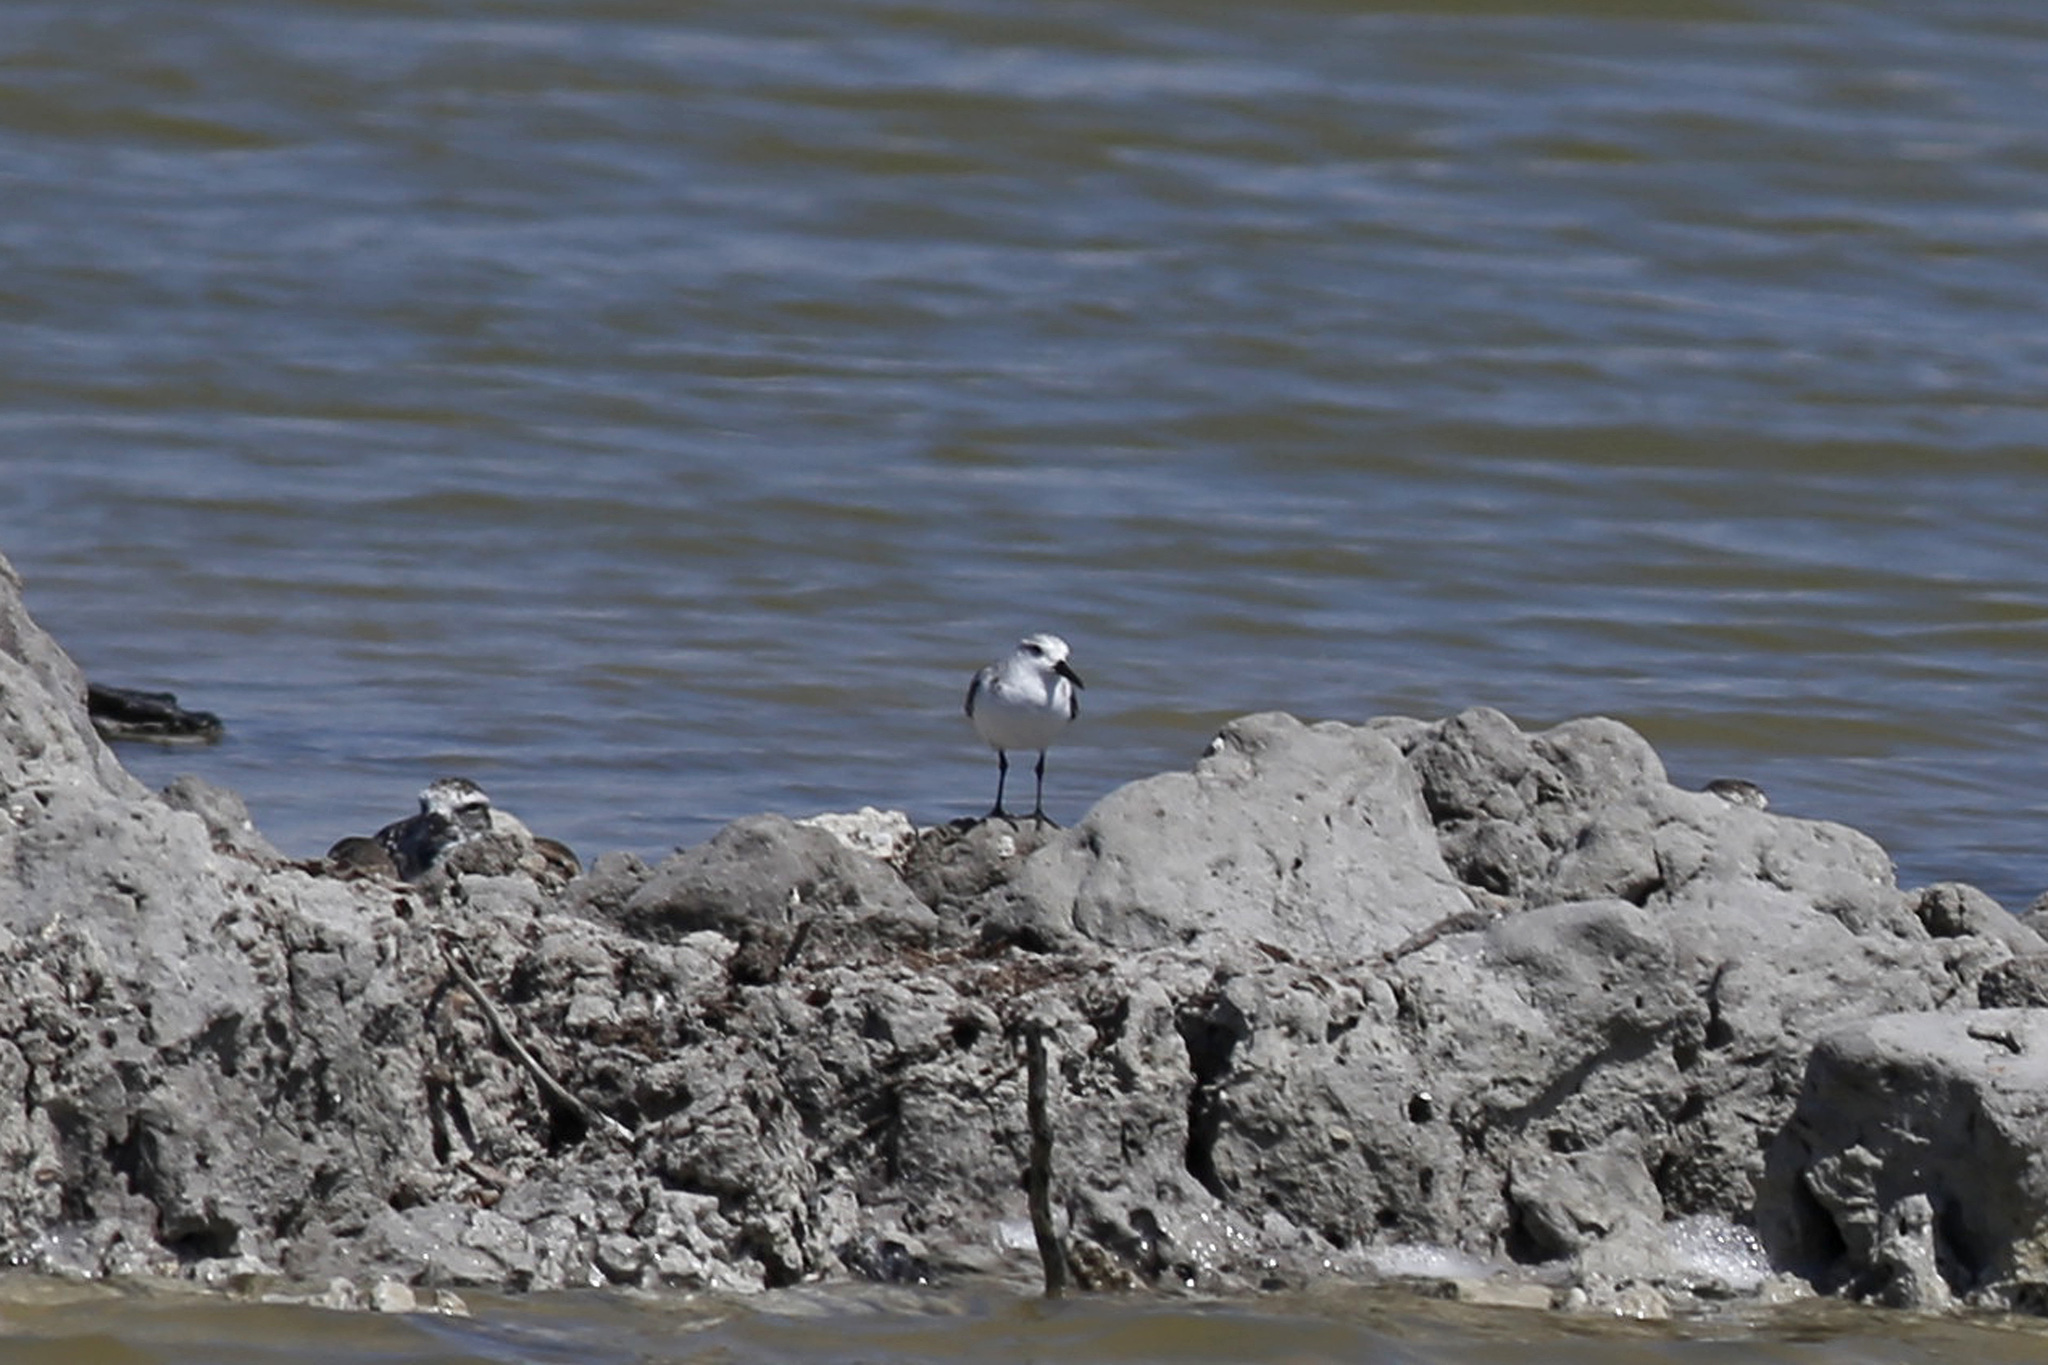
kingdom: Animalia
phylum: Chordata
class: Aves
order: Charadriiformes
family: Scolopacidae
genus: Calidris
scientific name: Calidris alba
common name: Sanderling
